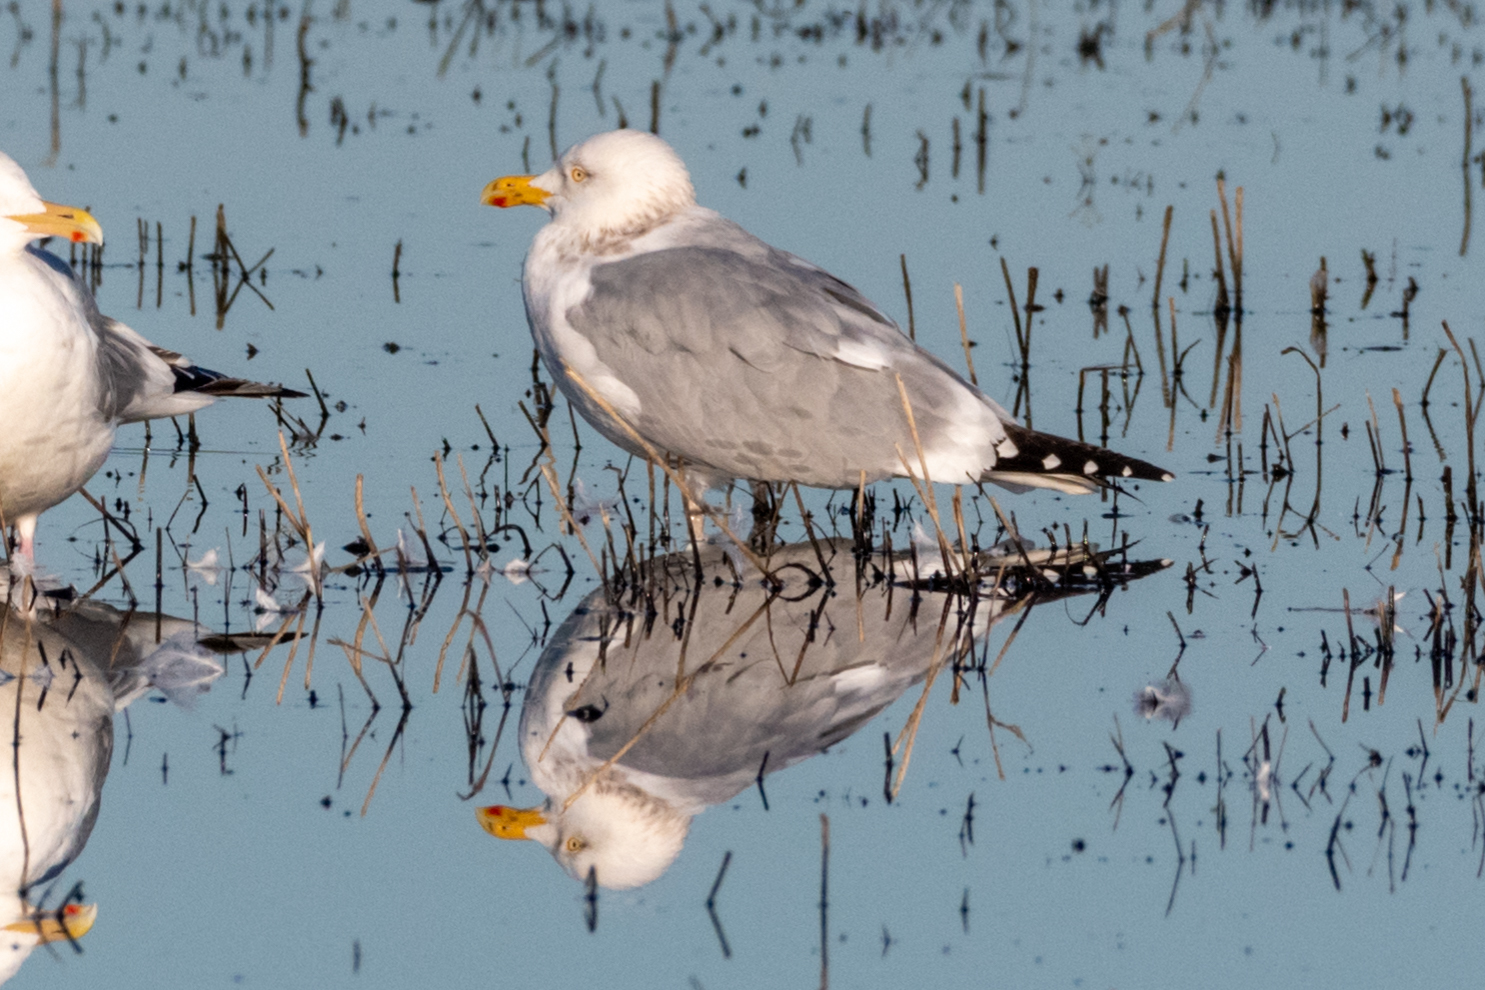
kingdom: Animalia
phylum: Chordata
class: Aves
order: Charadriiformes
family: Laridae
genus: Larus
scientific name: Larus argentatus
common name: Herring gull
